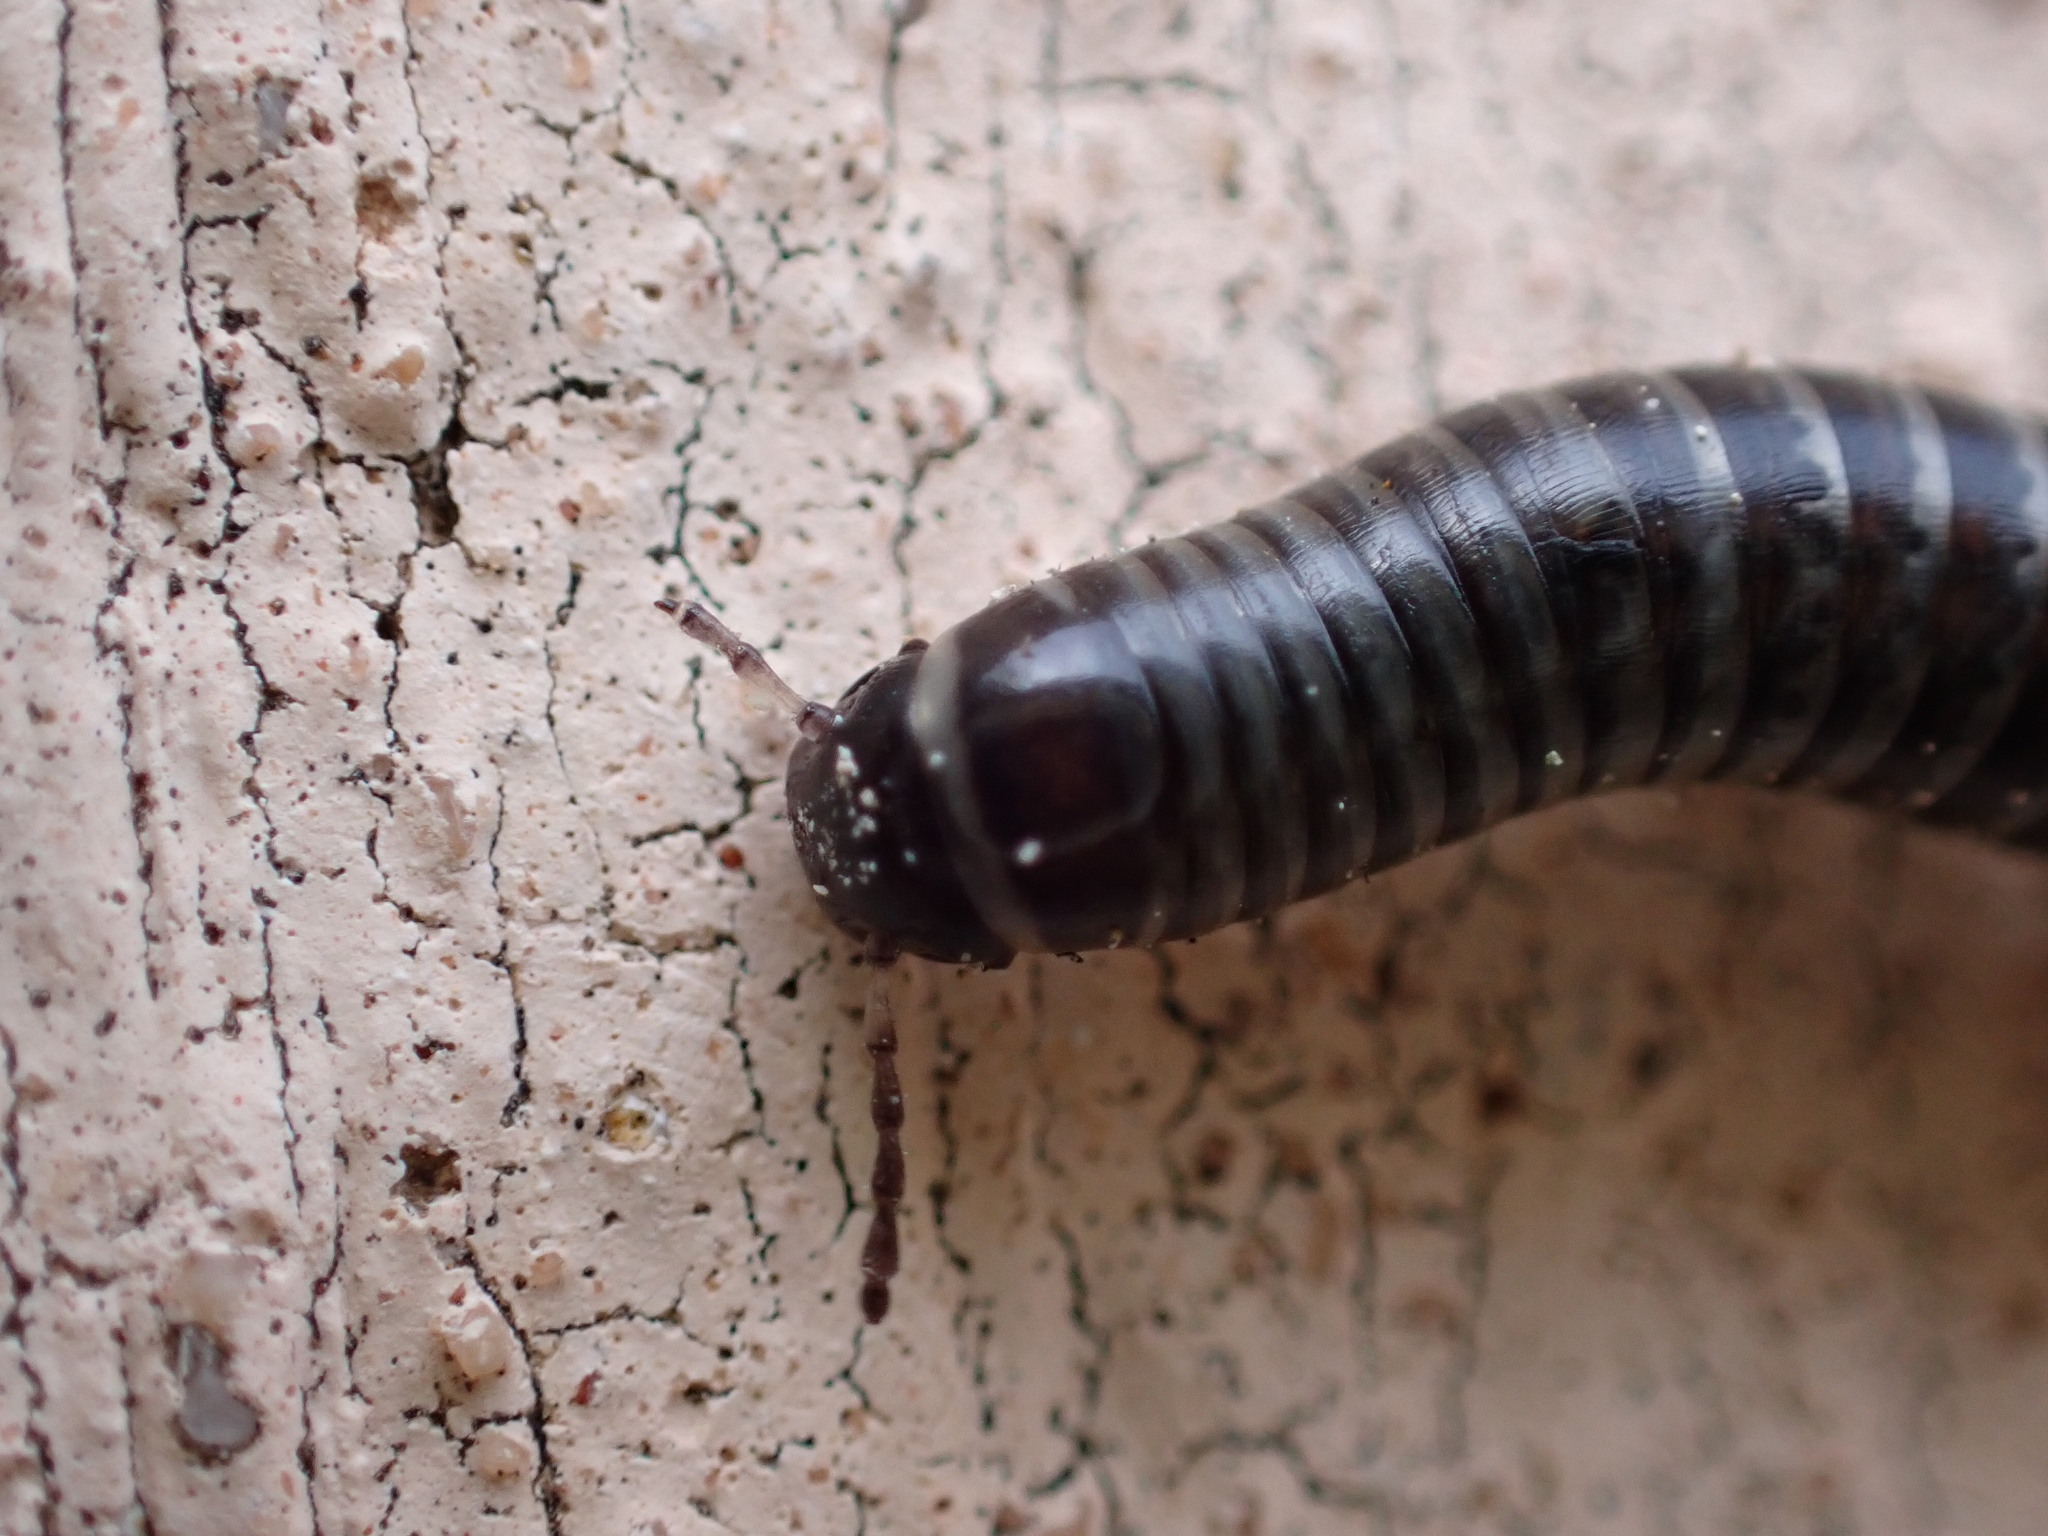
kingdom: Animalia
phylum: Arthropoda
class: Diplopoda
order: Julida
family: Julidae
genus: Ommatoiulus
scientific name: Ommatoiulus sabulosus
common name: Striped millipede
